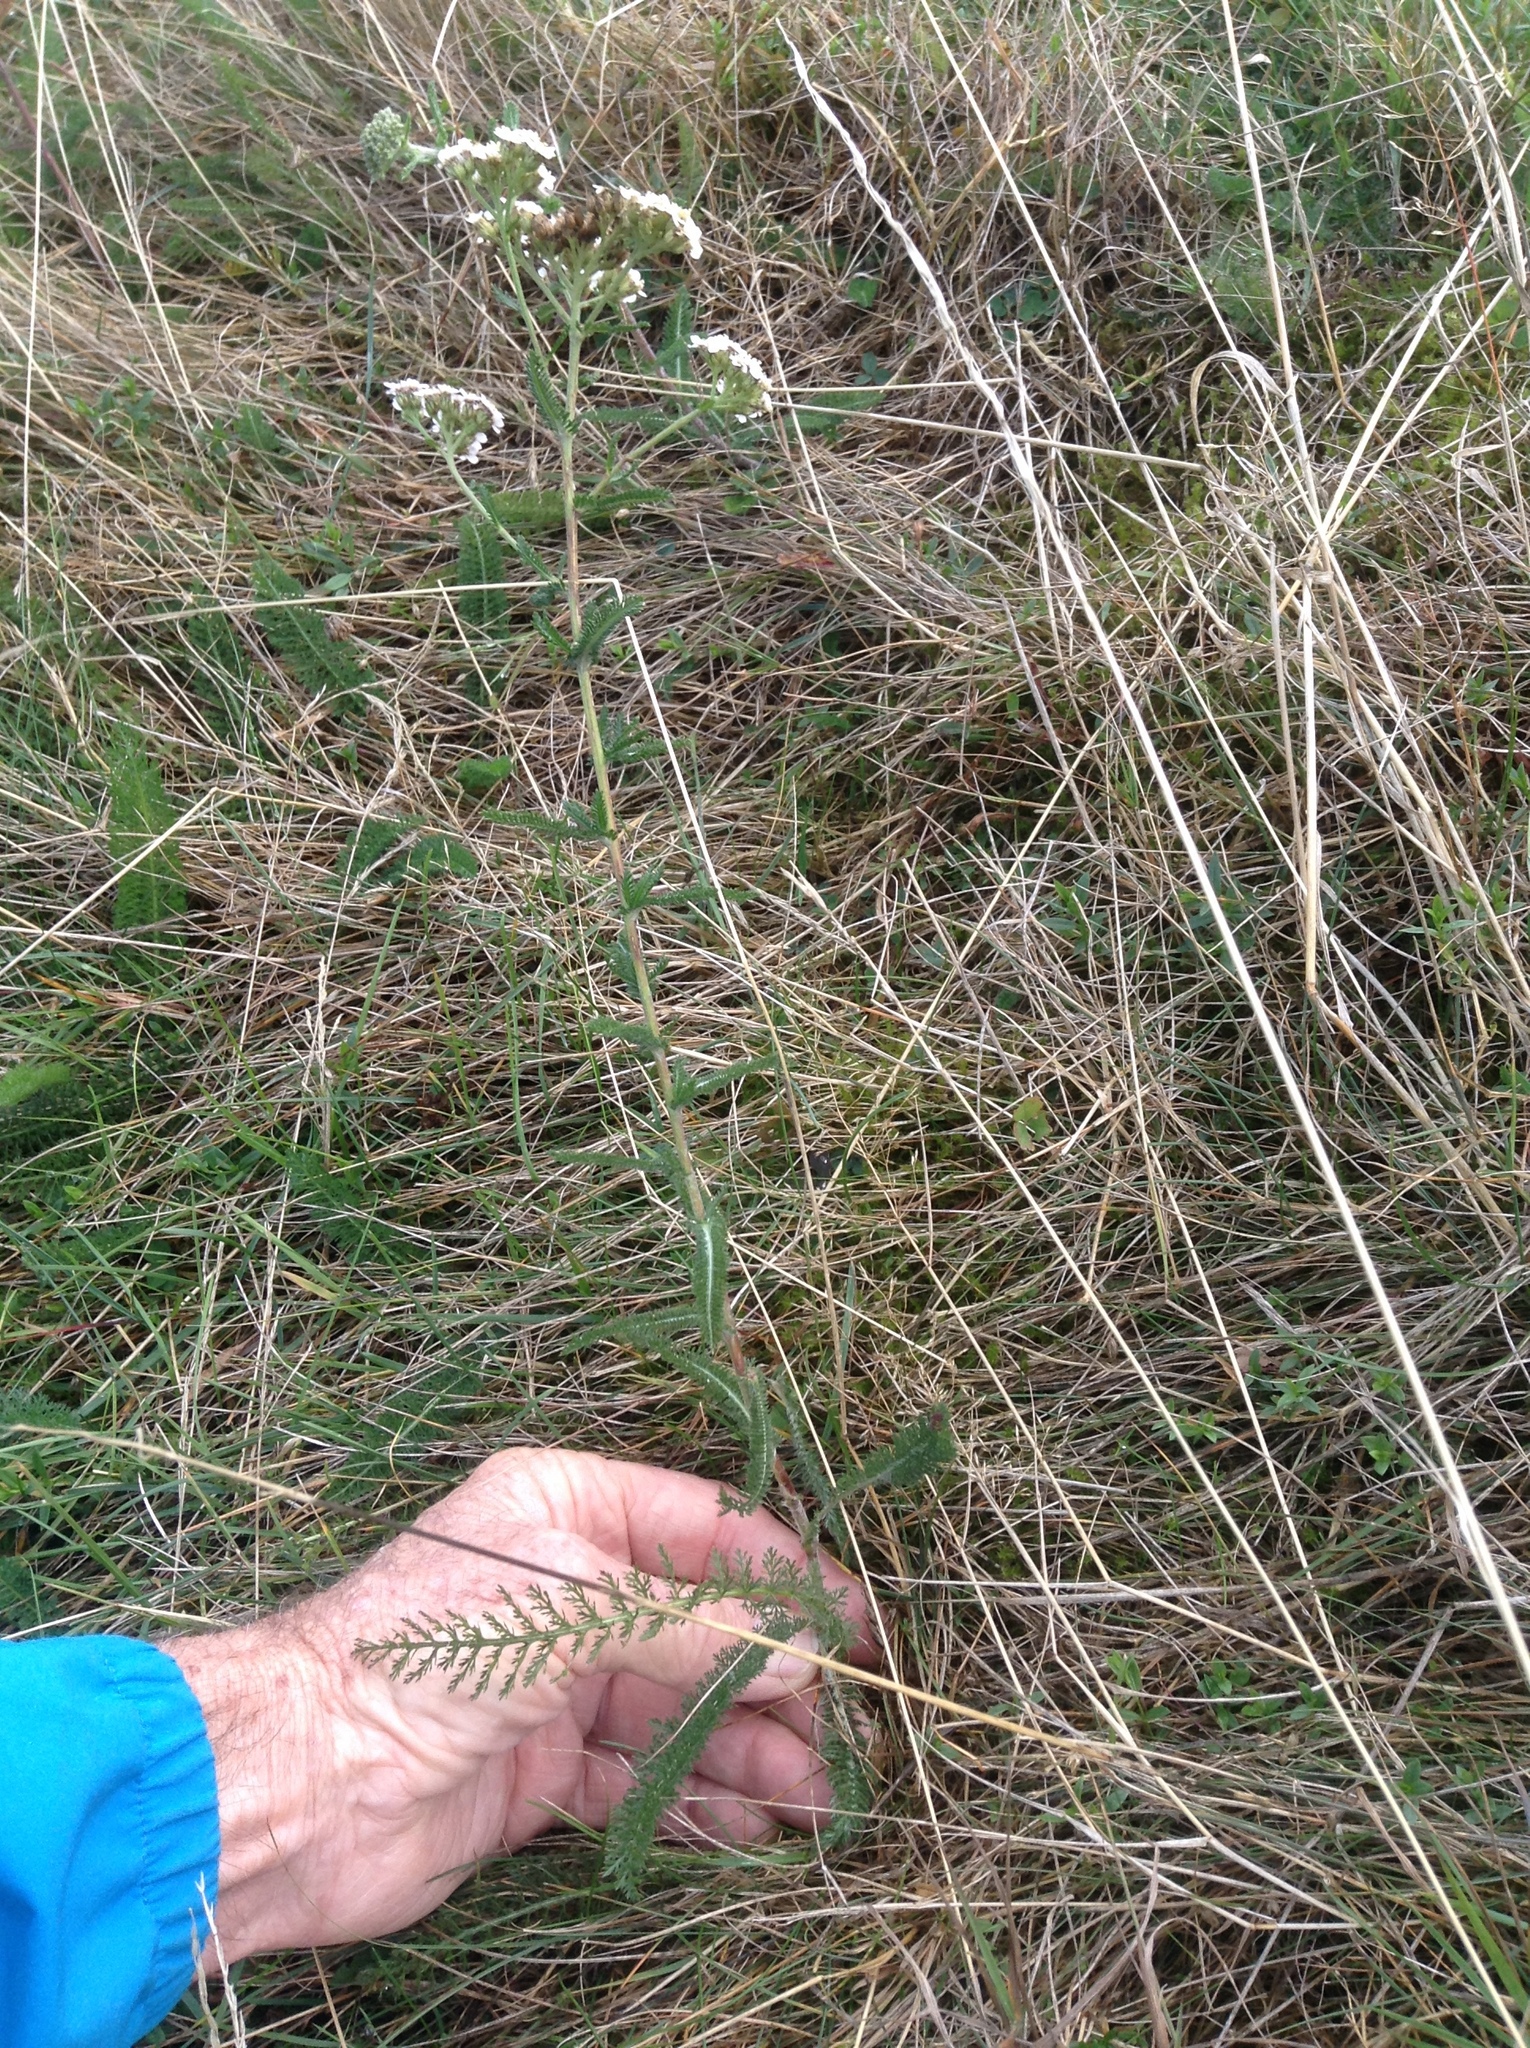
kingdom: Plantae
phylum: Tracheophyta
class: Magnoliopsida
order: Asterales
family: Asteraceae
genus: Achillea
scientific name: Achillea millefolium
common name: Yarrow
